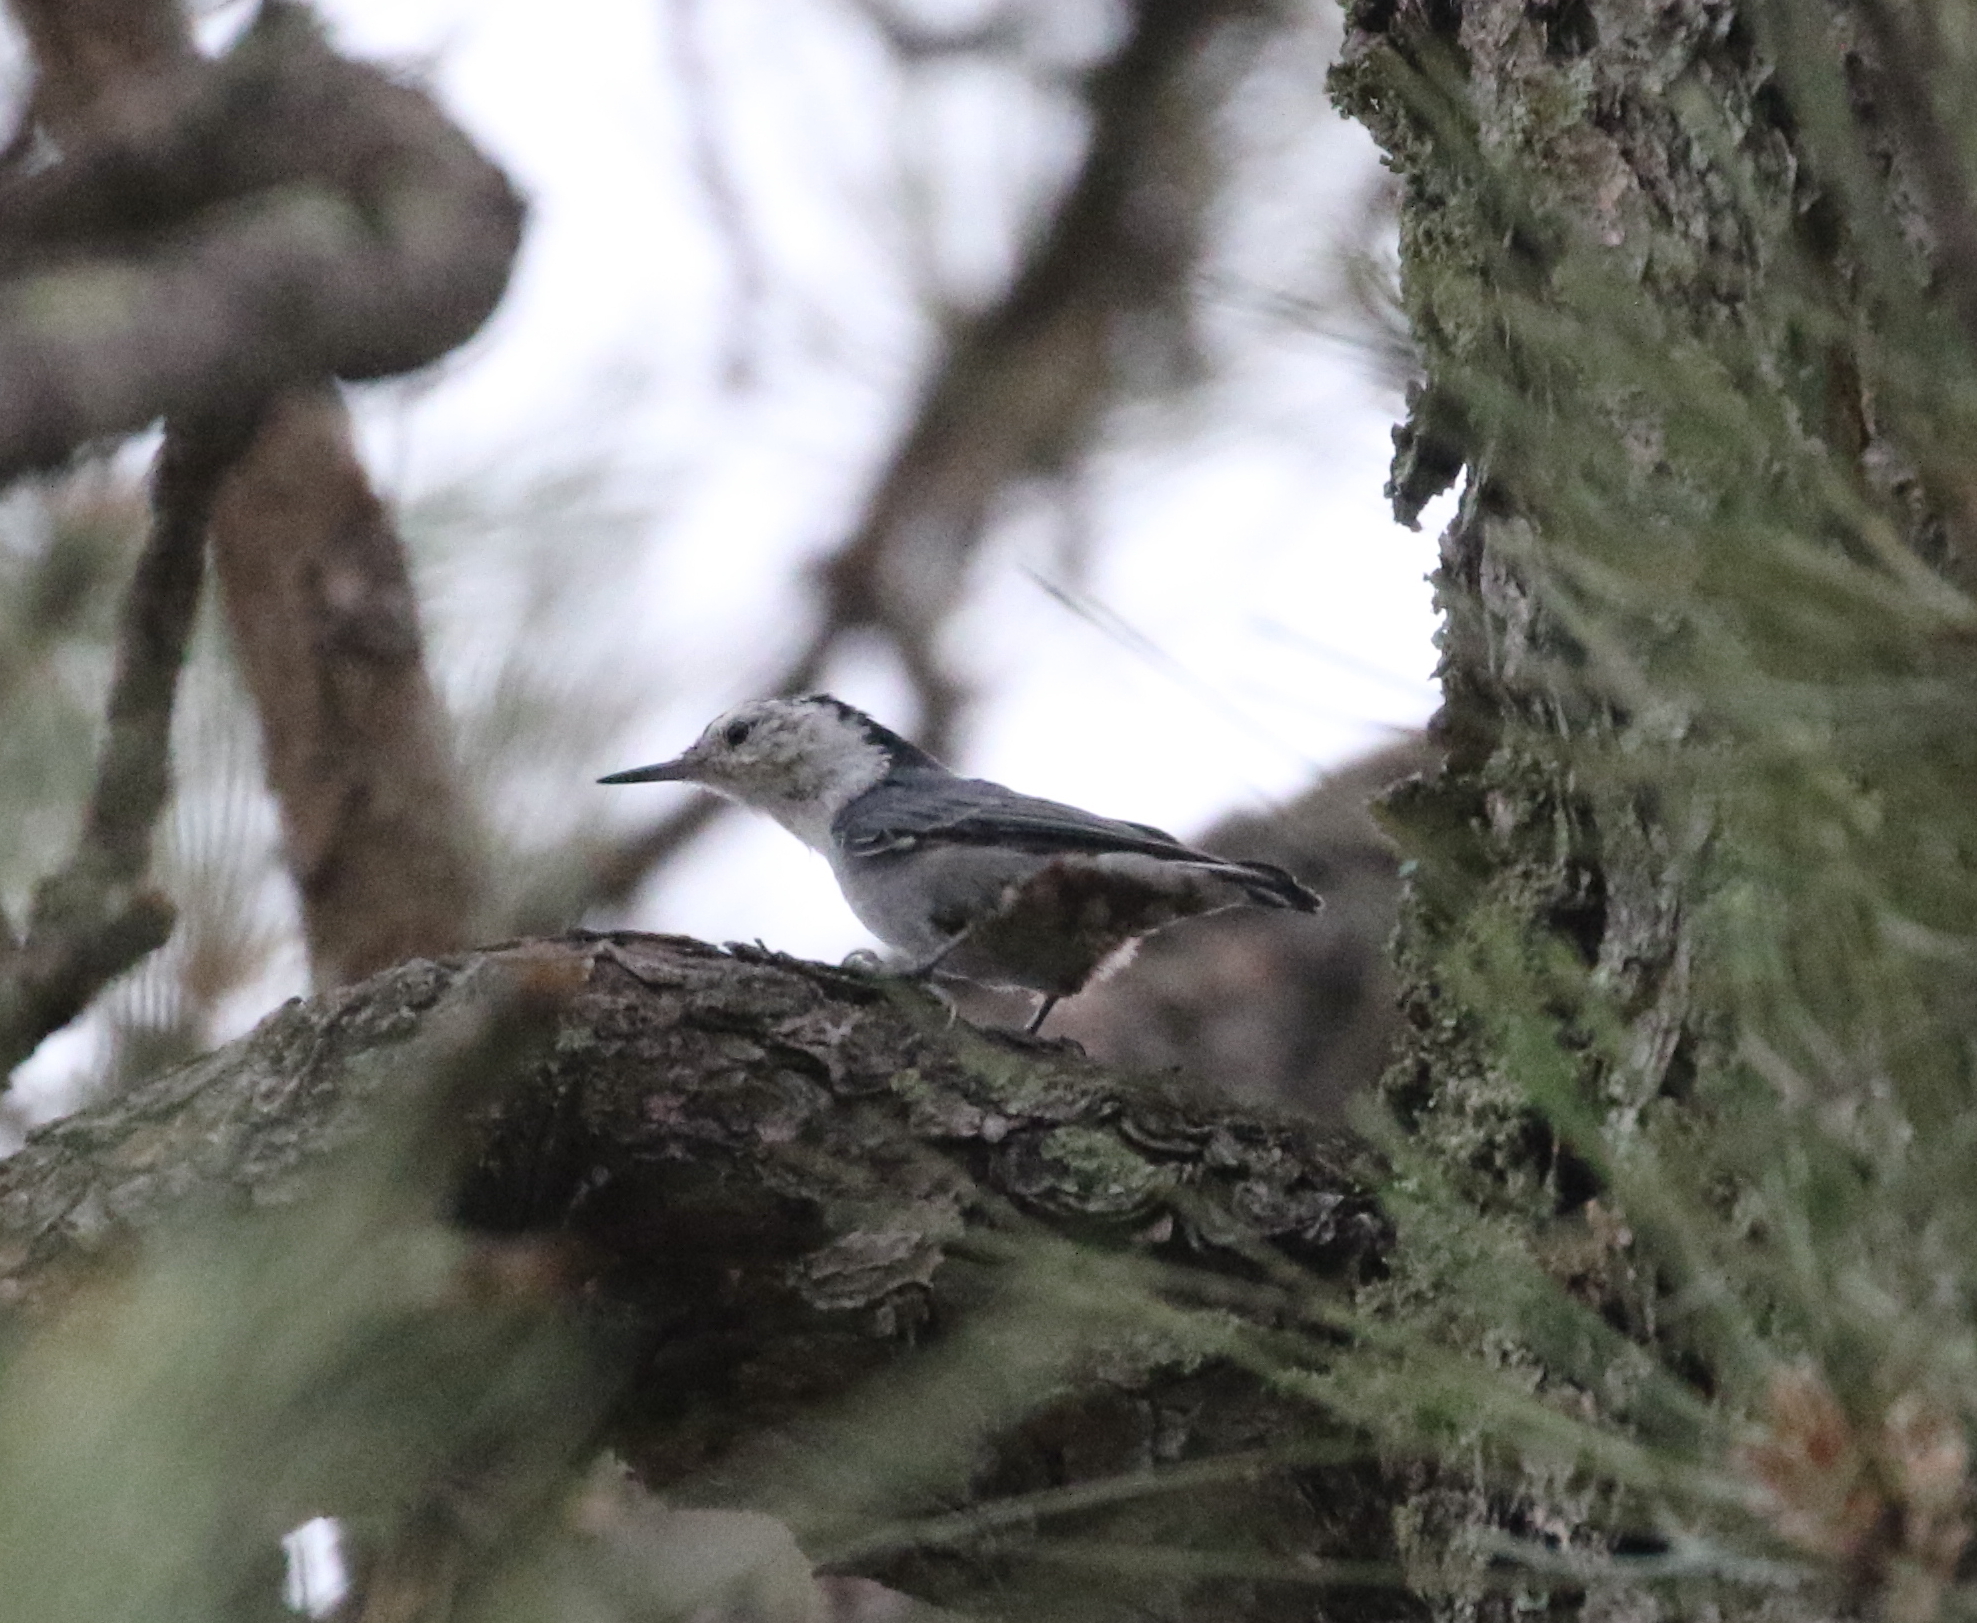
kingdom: Animalia
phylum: Chordata
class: Aves
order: Passeriformes
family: Sittidae
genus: Sitta
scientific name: Sitta carolinensis
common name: White-breasted nuthatch
